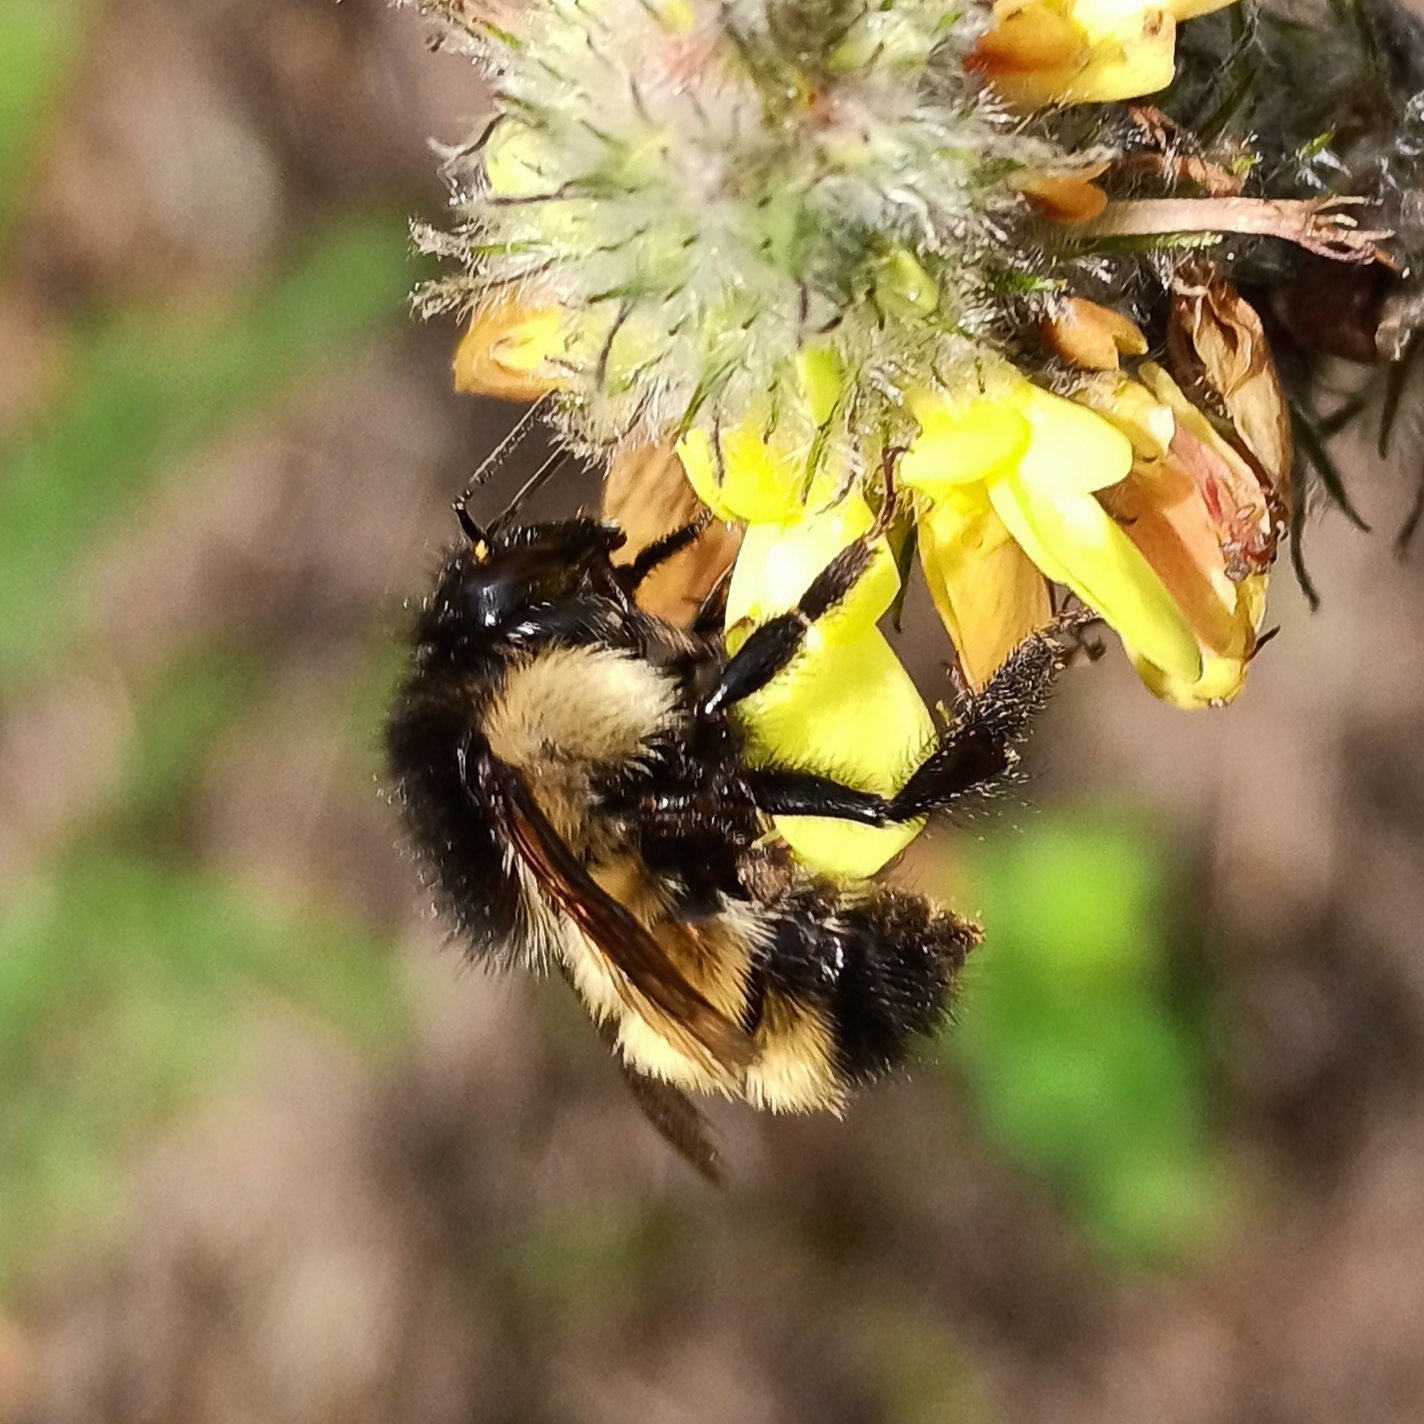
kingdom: Animalia
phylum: Arthropoda
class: Insecta
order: Hymenoptera
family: Apidae
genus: Bombus
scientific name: Bombus weisi
